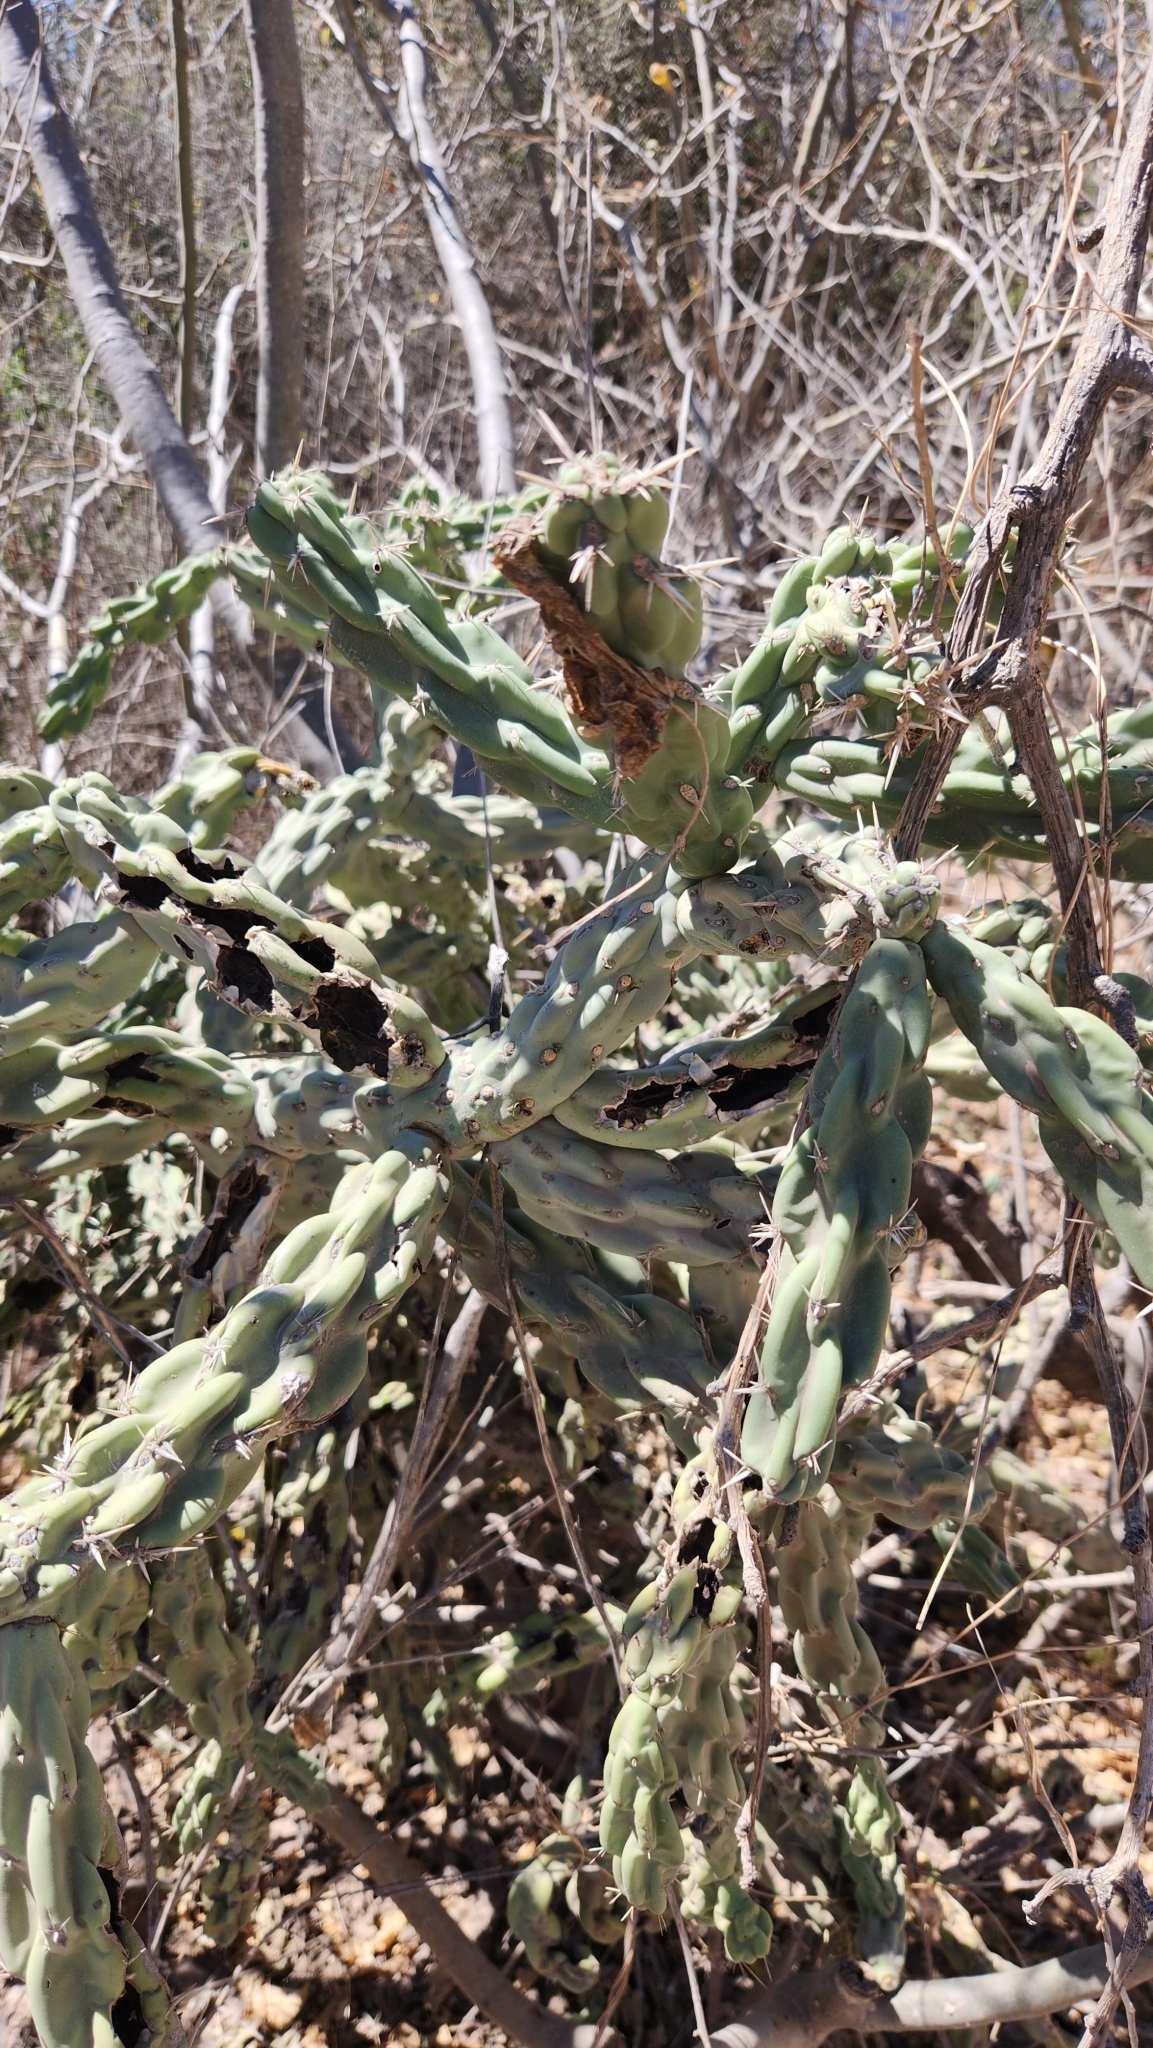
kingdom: Plantae
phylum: Tracheophyta
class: Magnoliopsida
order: Caryophyllales
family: Cactaceae
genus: Cylindropuntia
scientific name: Cylindropuntia cholla
